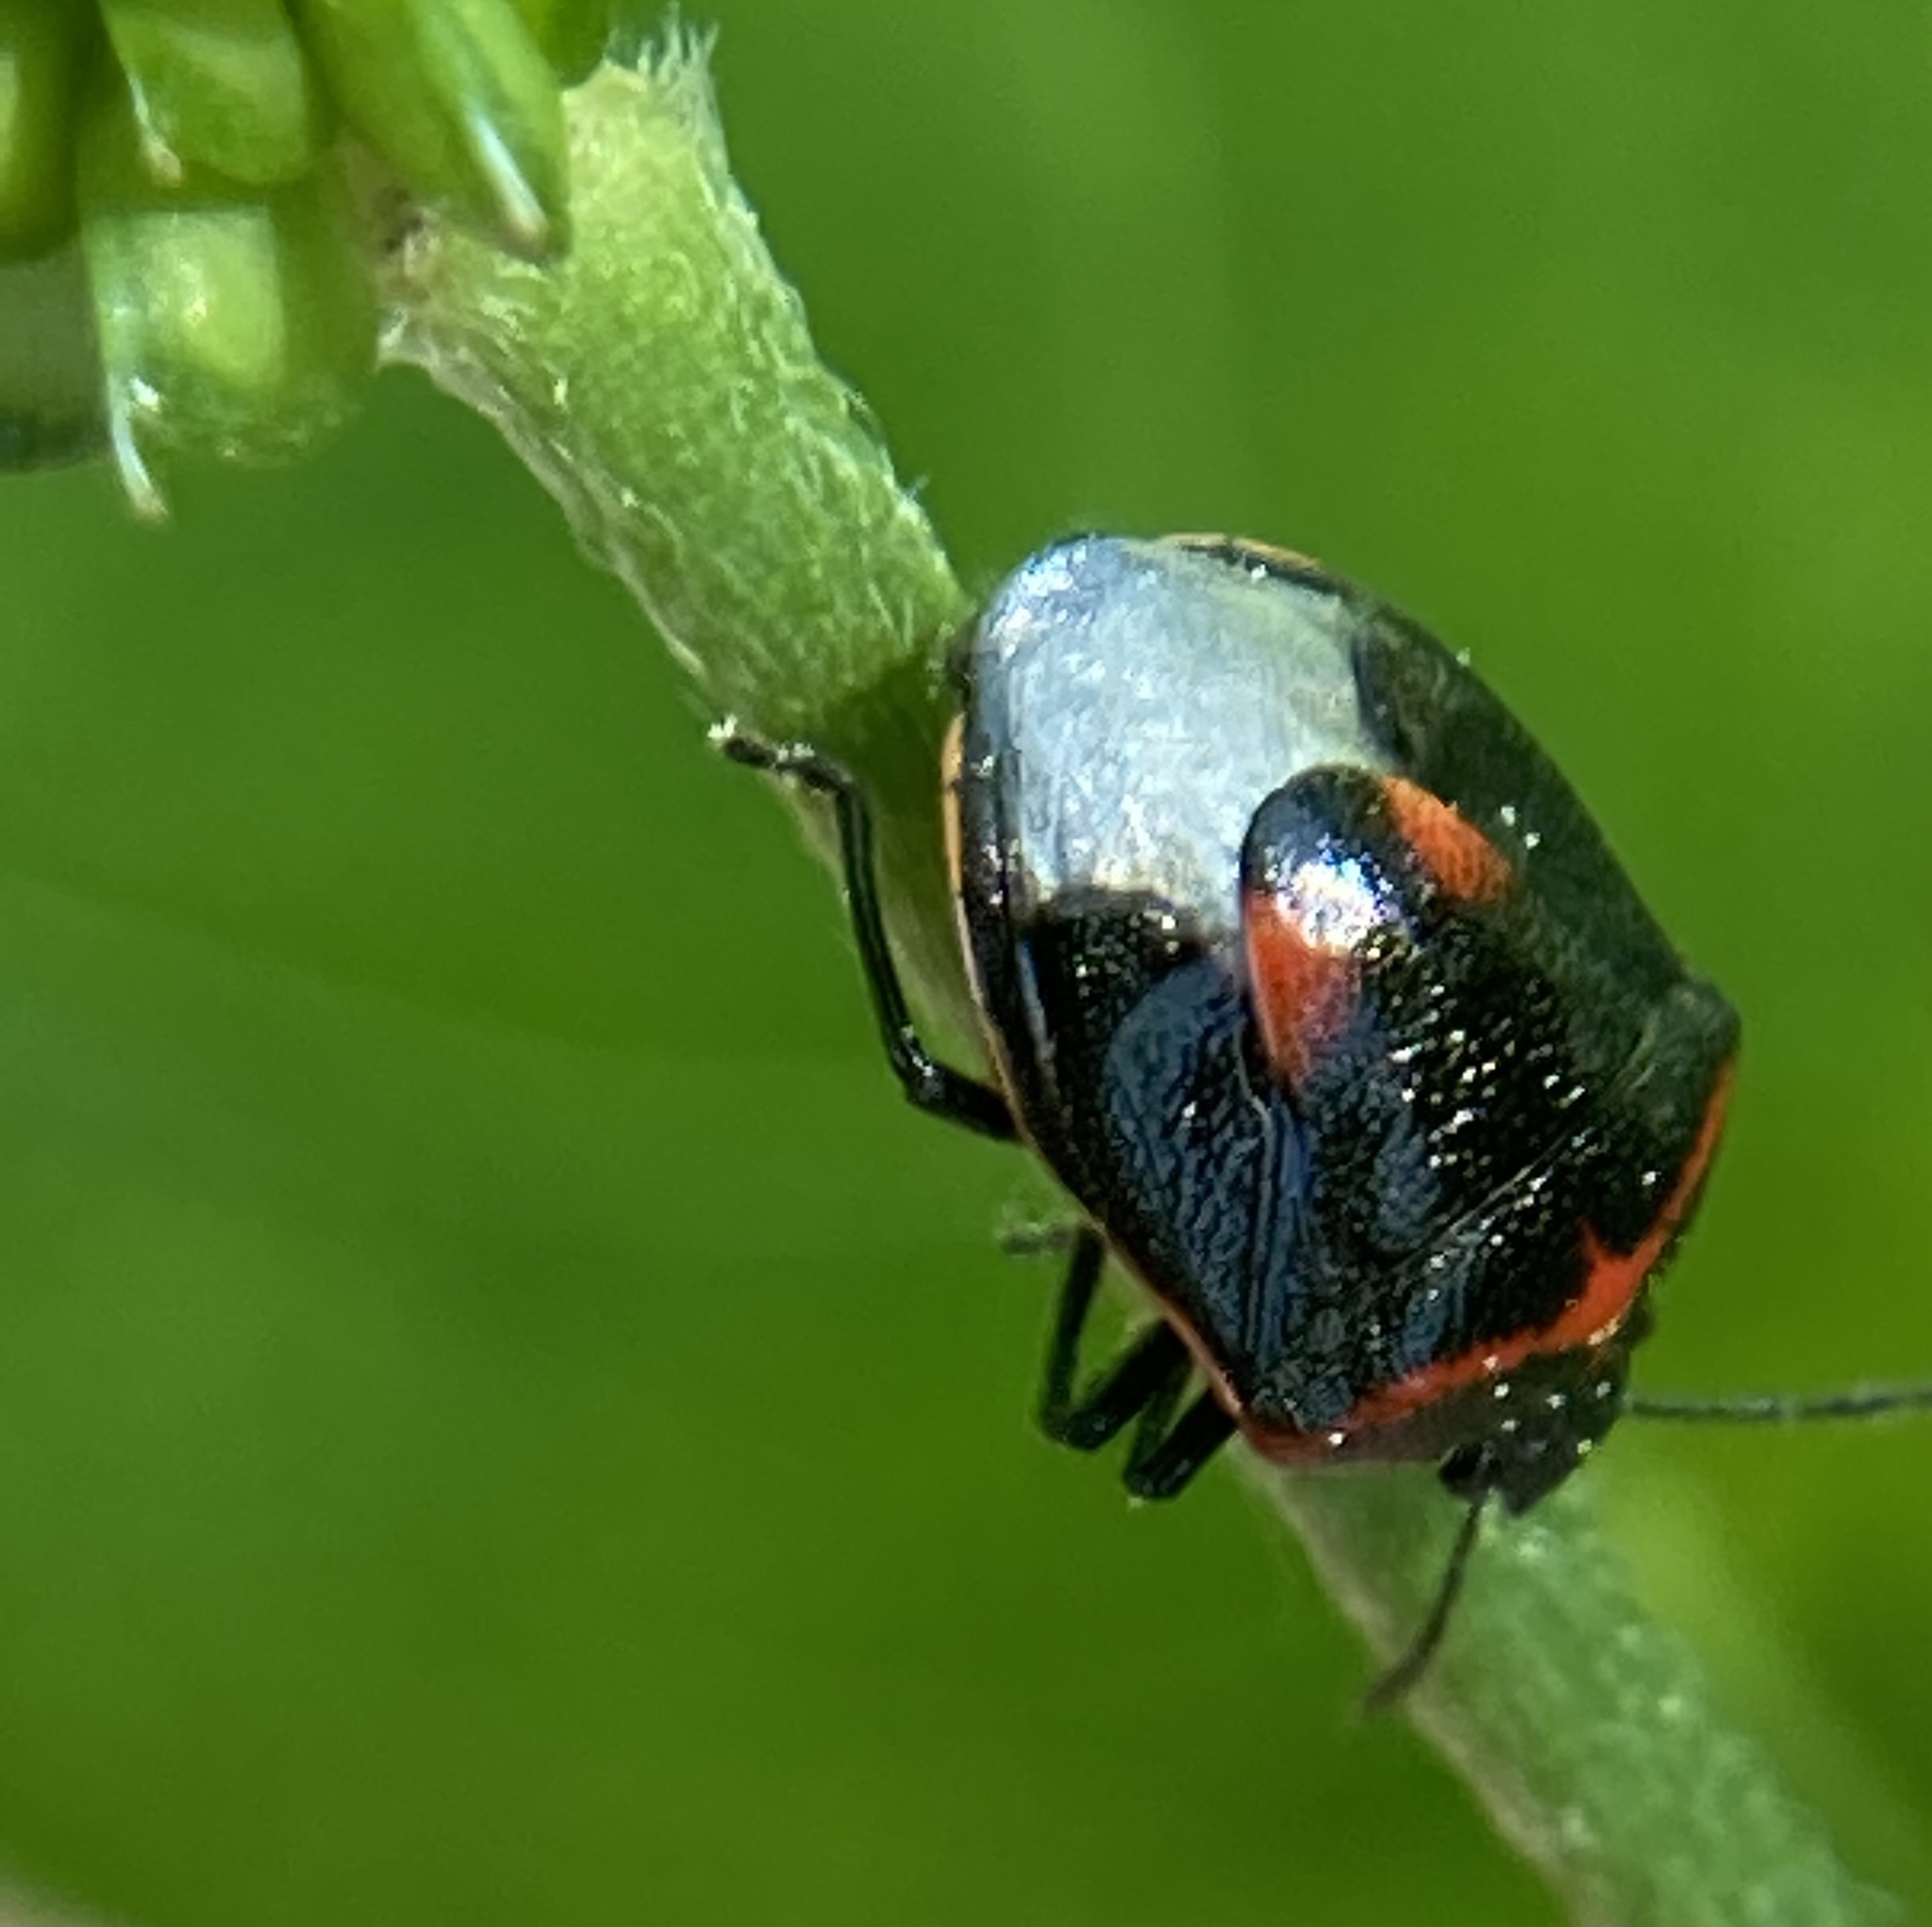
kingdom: Animalia
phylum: Arthropoda
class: Insecta
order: Hemiptera
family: Pentatomidae
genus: Cosmopepla
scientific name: Cosmopepla lintneriana
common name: Twice-stabbed stink bug
